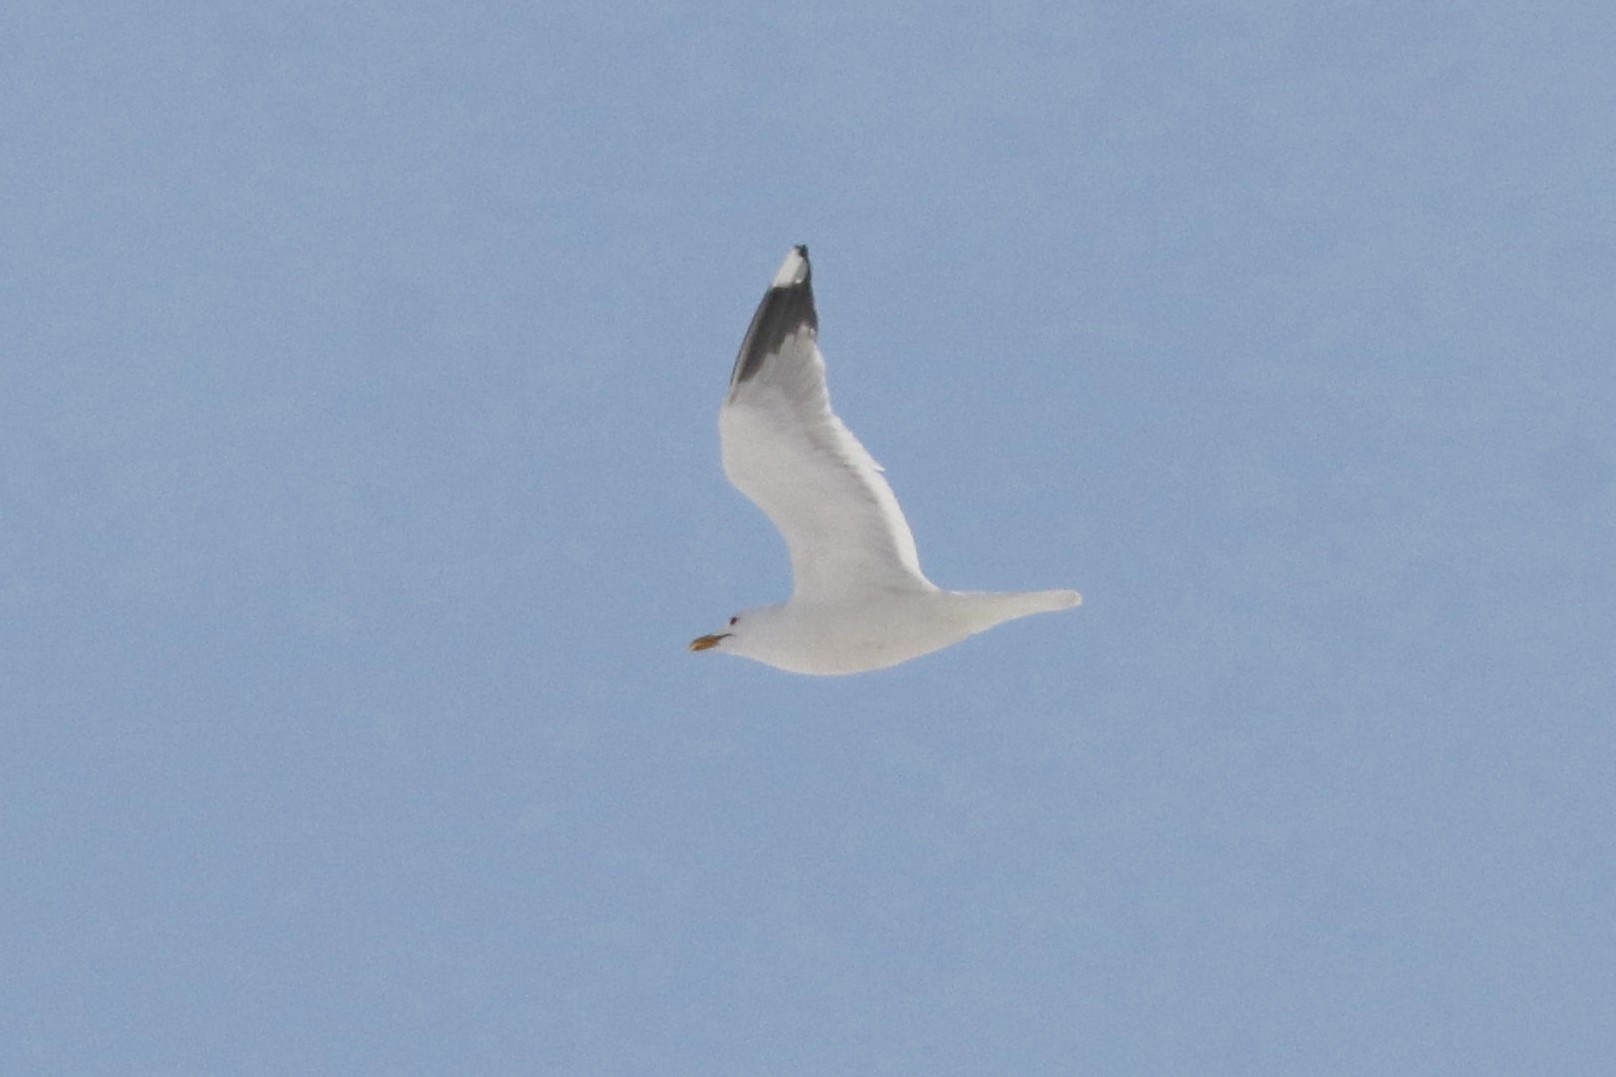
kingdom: Animalia
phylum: Chordata
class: Aves
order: Charadriiformes
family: Laridae
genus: Larus
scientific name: Larus canus
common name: Mew gull
